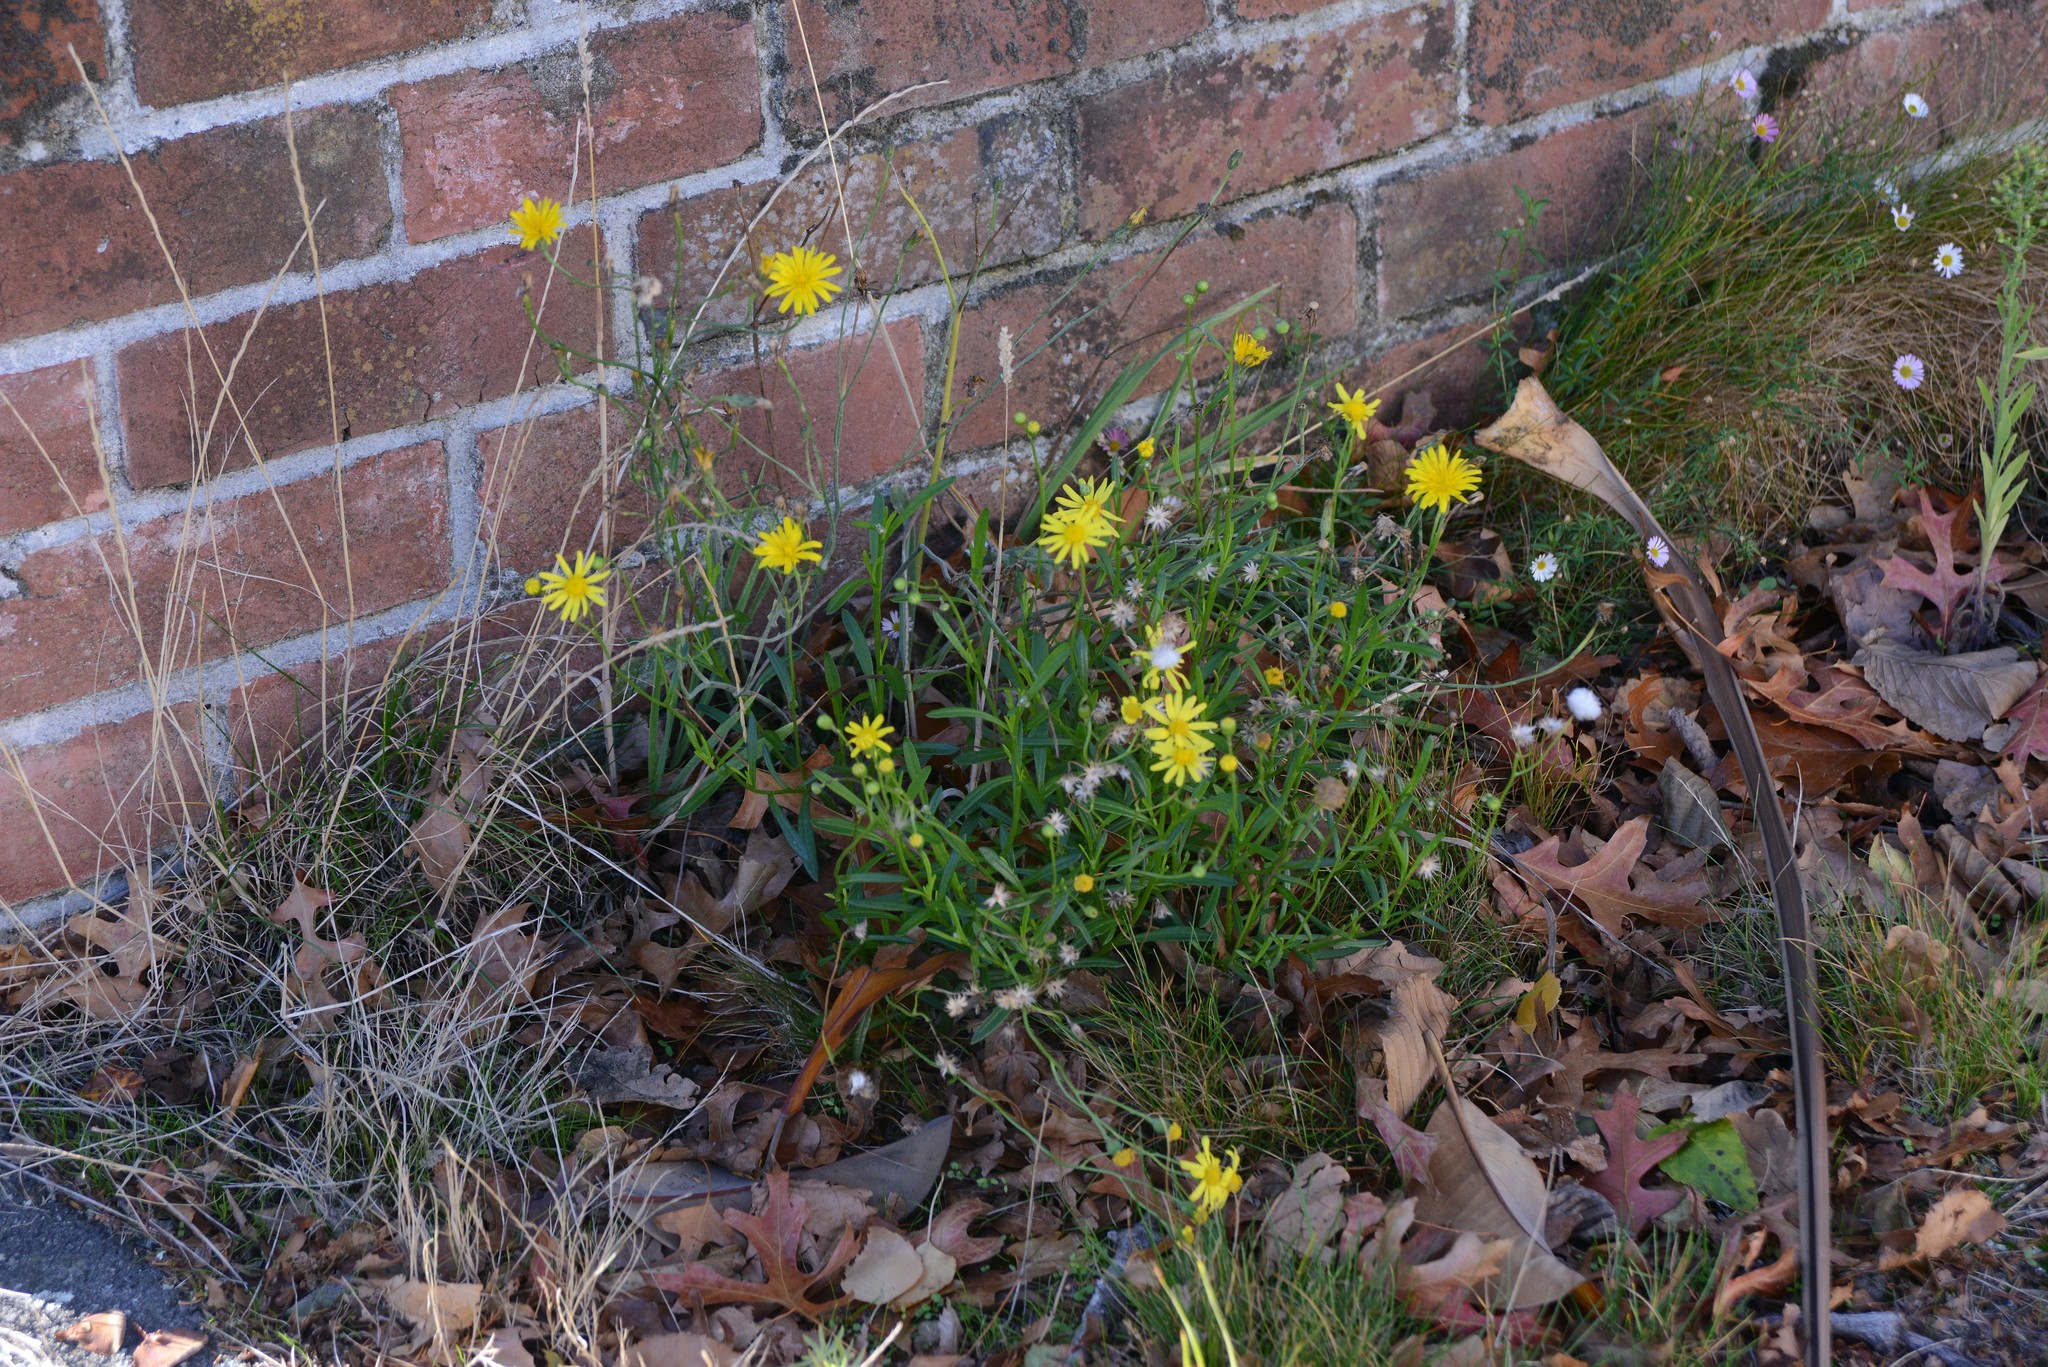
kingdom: Plantae
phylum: Tracheophyta
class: Magnoliopsida
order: Asterales
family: Asteraceae
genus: Senecio
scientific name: Senecio skirrhodon
